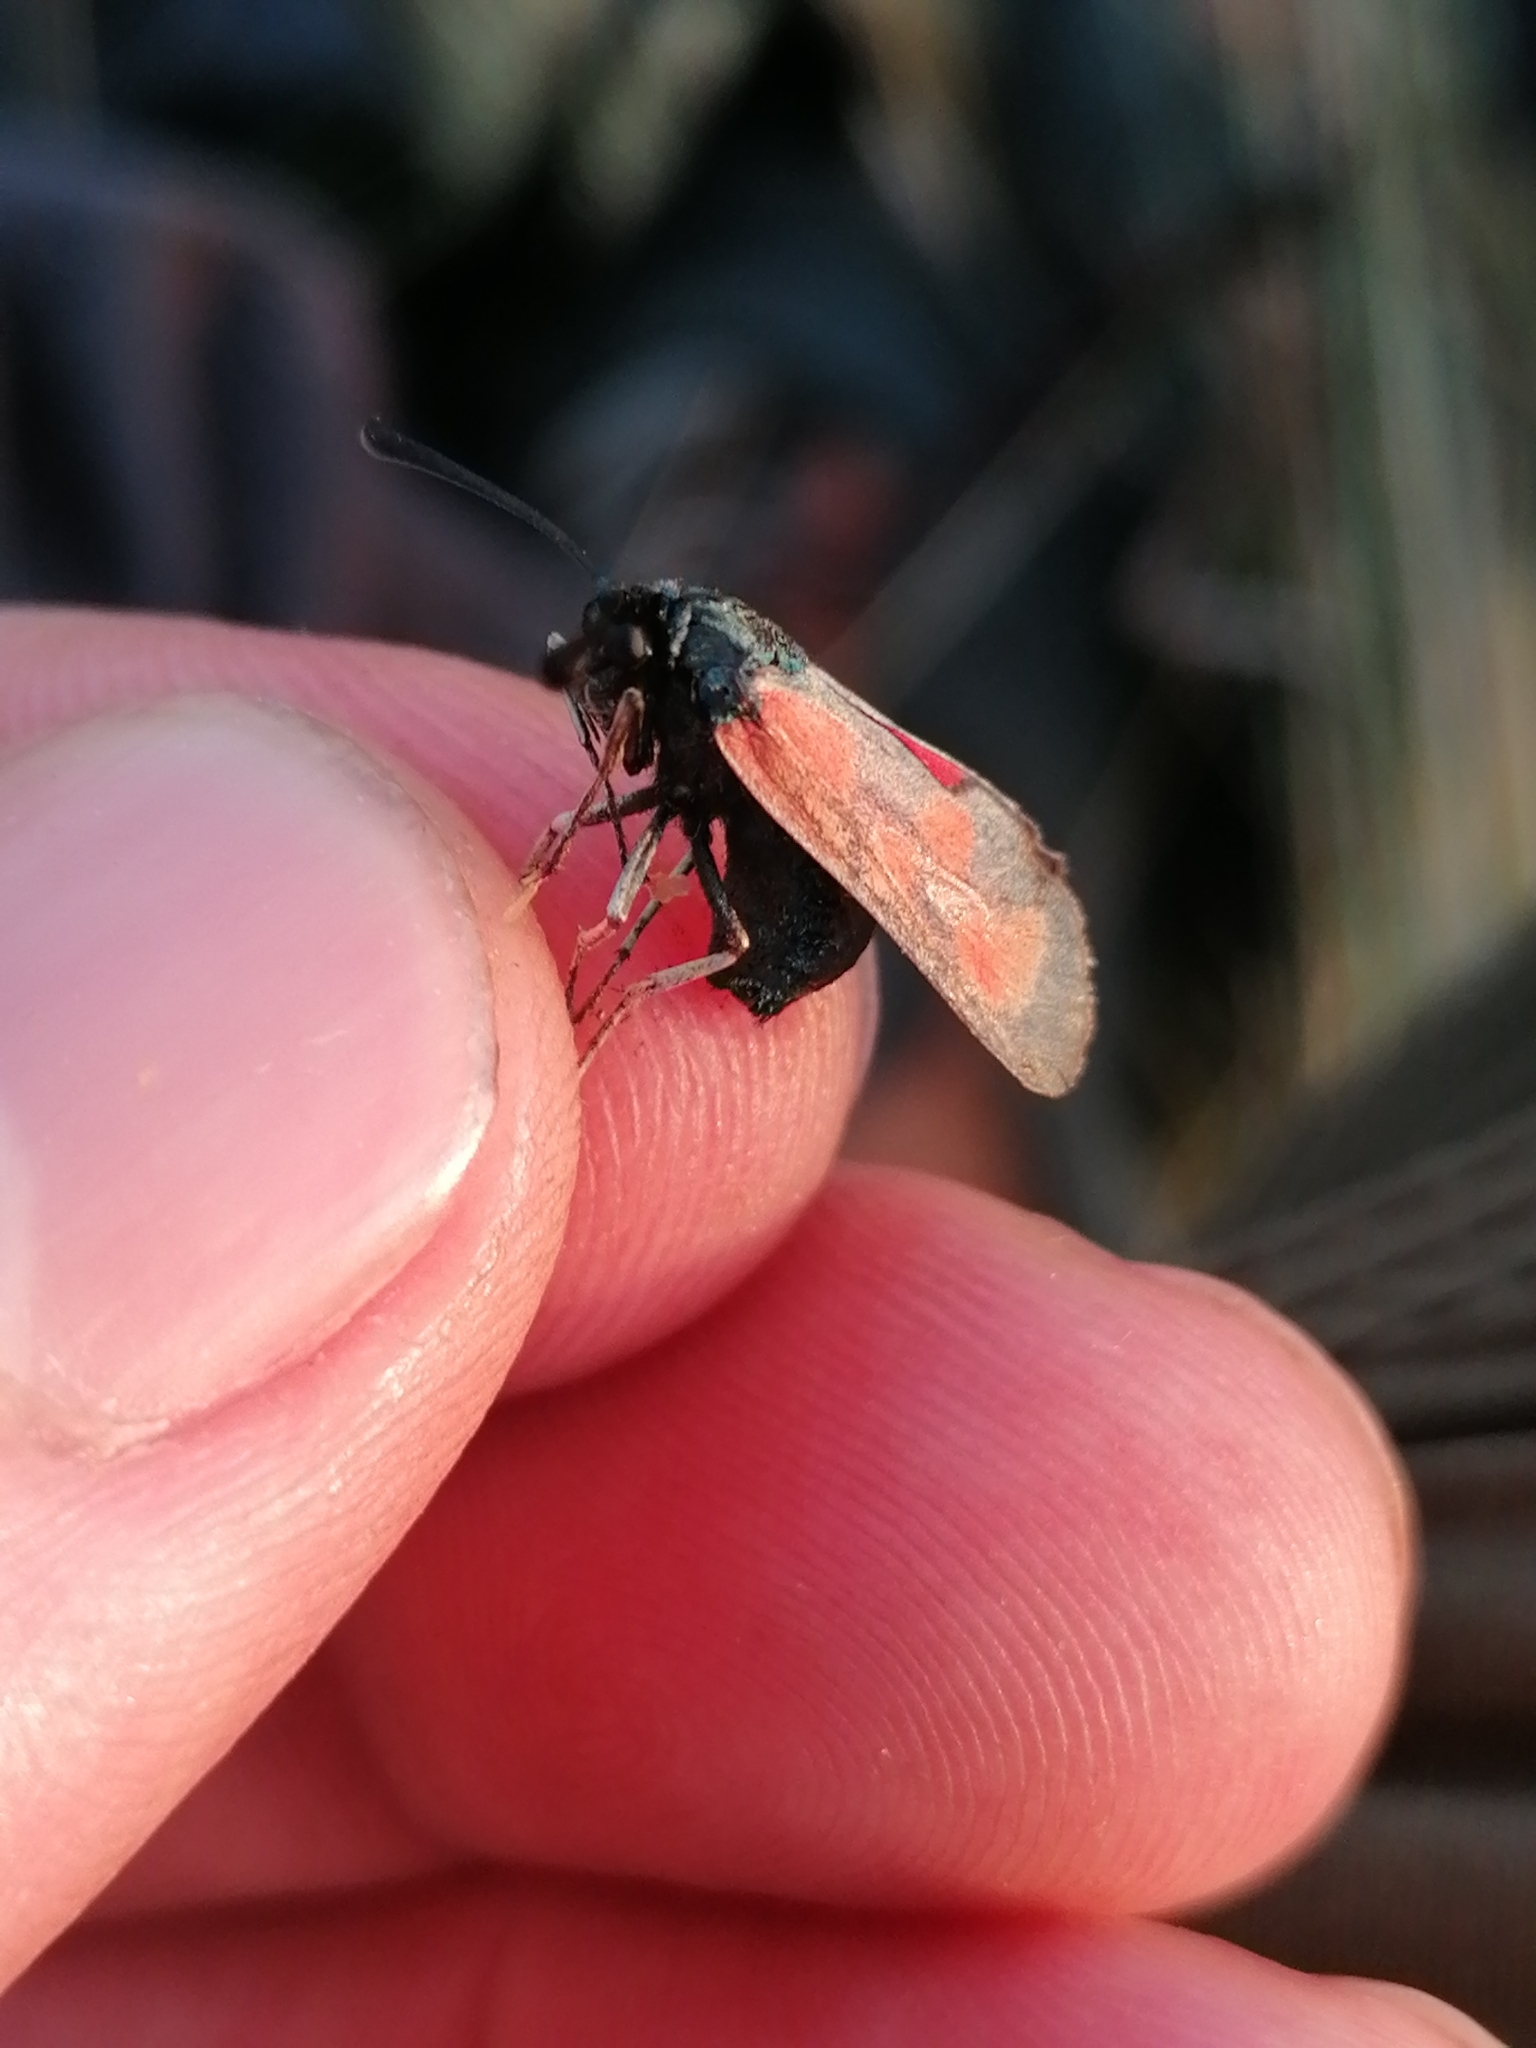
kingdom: Animalia
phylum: Arthropoda
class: Insecta
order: Lepidoptera
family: Zygaenidae
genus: Zygaena
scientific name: Zygaena loti
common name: Slender scotch burnet
